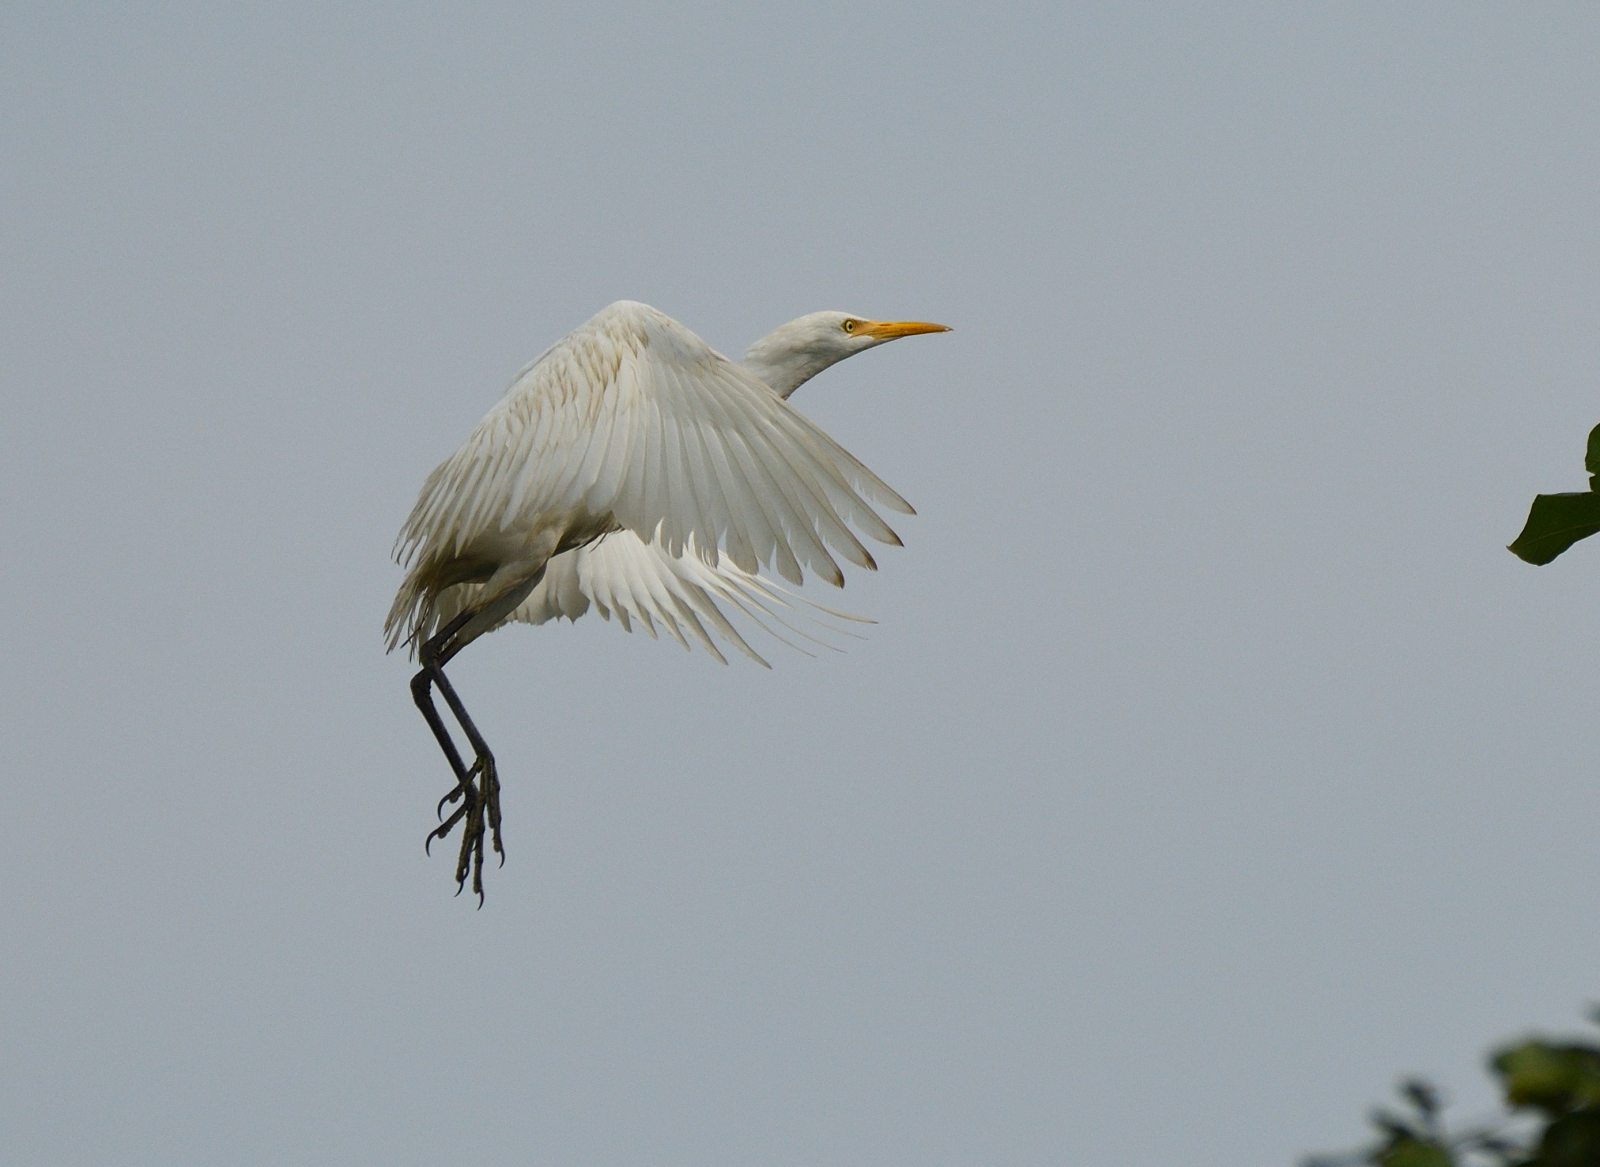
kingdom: Animalia
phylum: Chordata
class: Aves
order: Pelecaniformes
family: Ardeidae
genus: Bubulcus
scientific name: Bubulcus coromandus
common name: Eastern cattle egret
